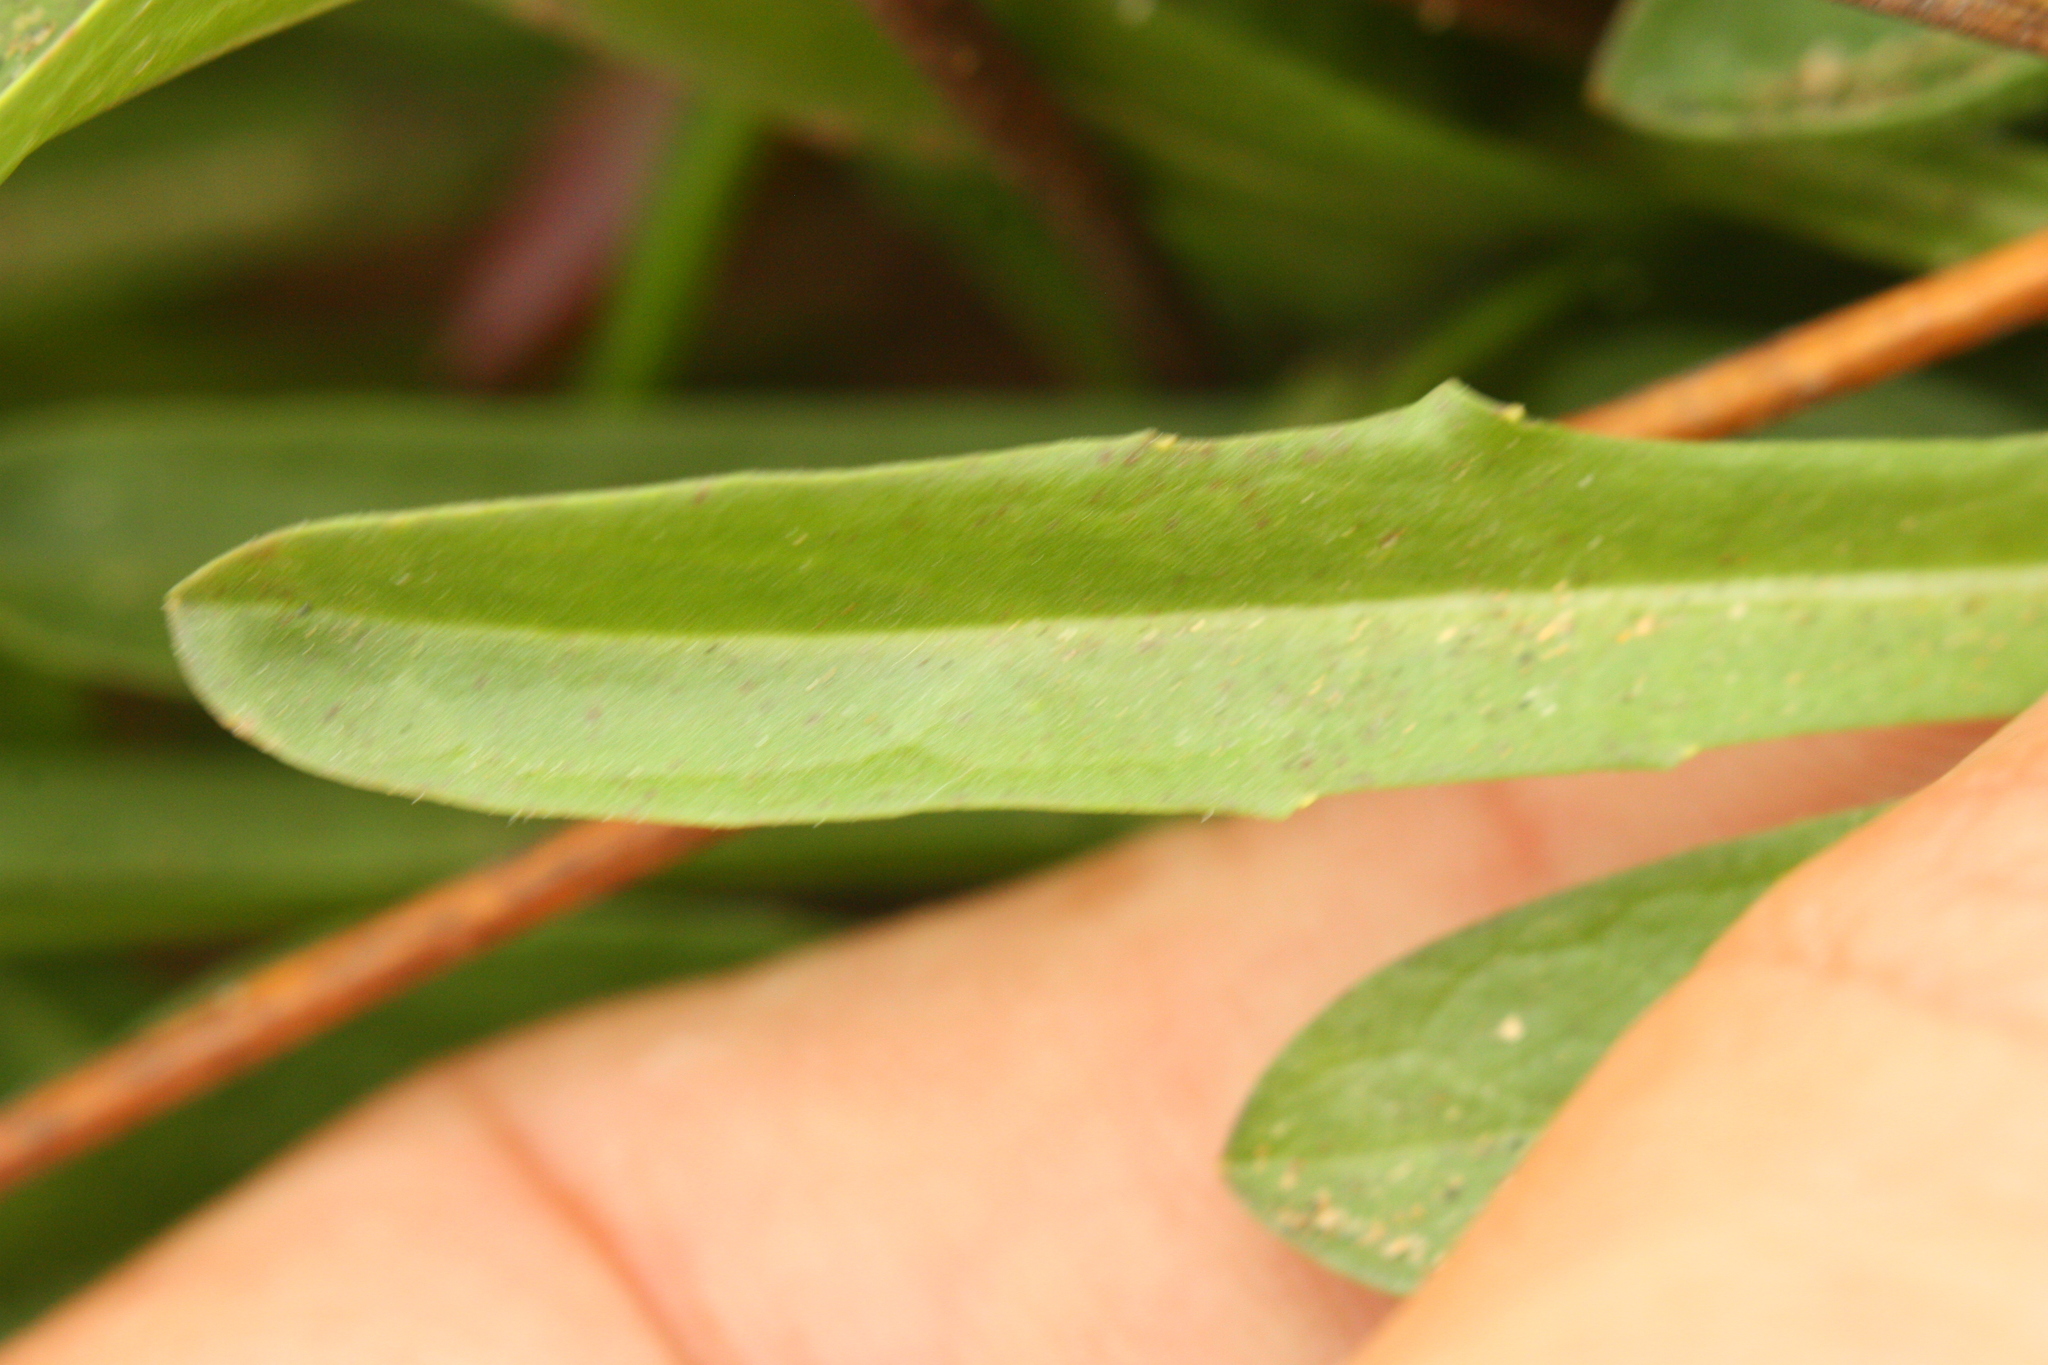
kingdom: Plantae
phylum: Tracheophyta
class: Magnoliopsida
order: Asterales
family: Asteraceae
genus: Agoseris
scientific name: Agoseris apargioides
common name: Point reyes agoseris
